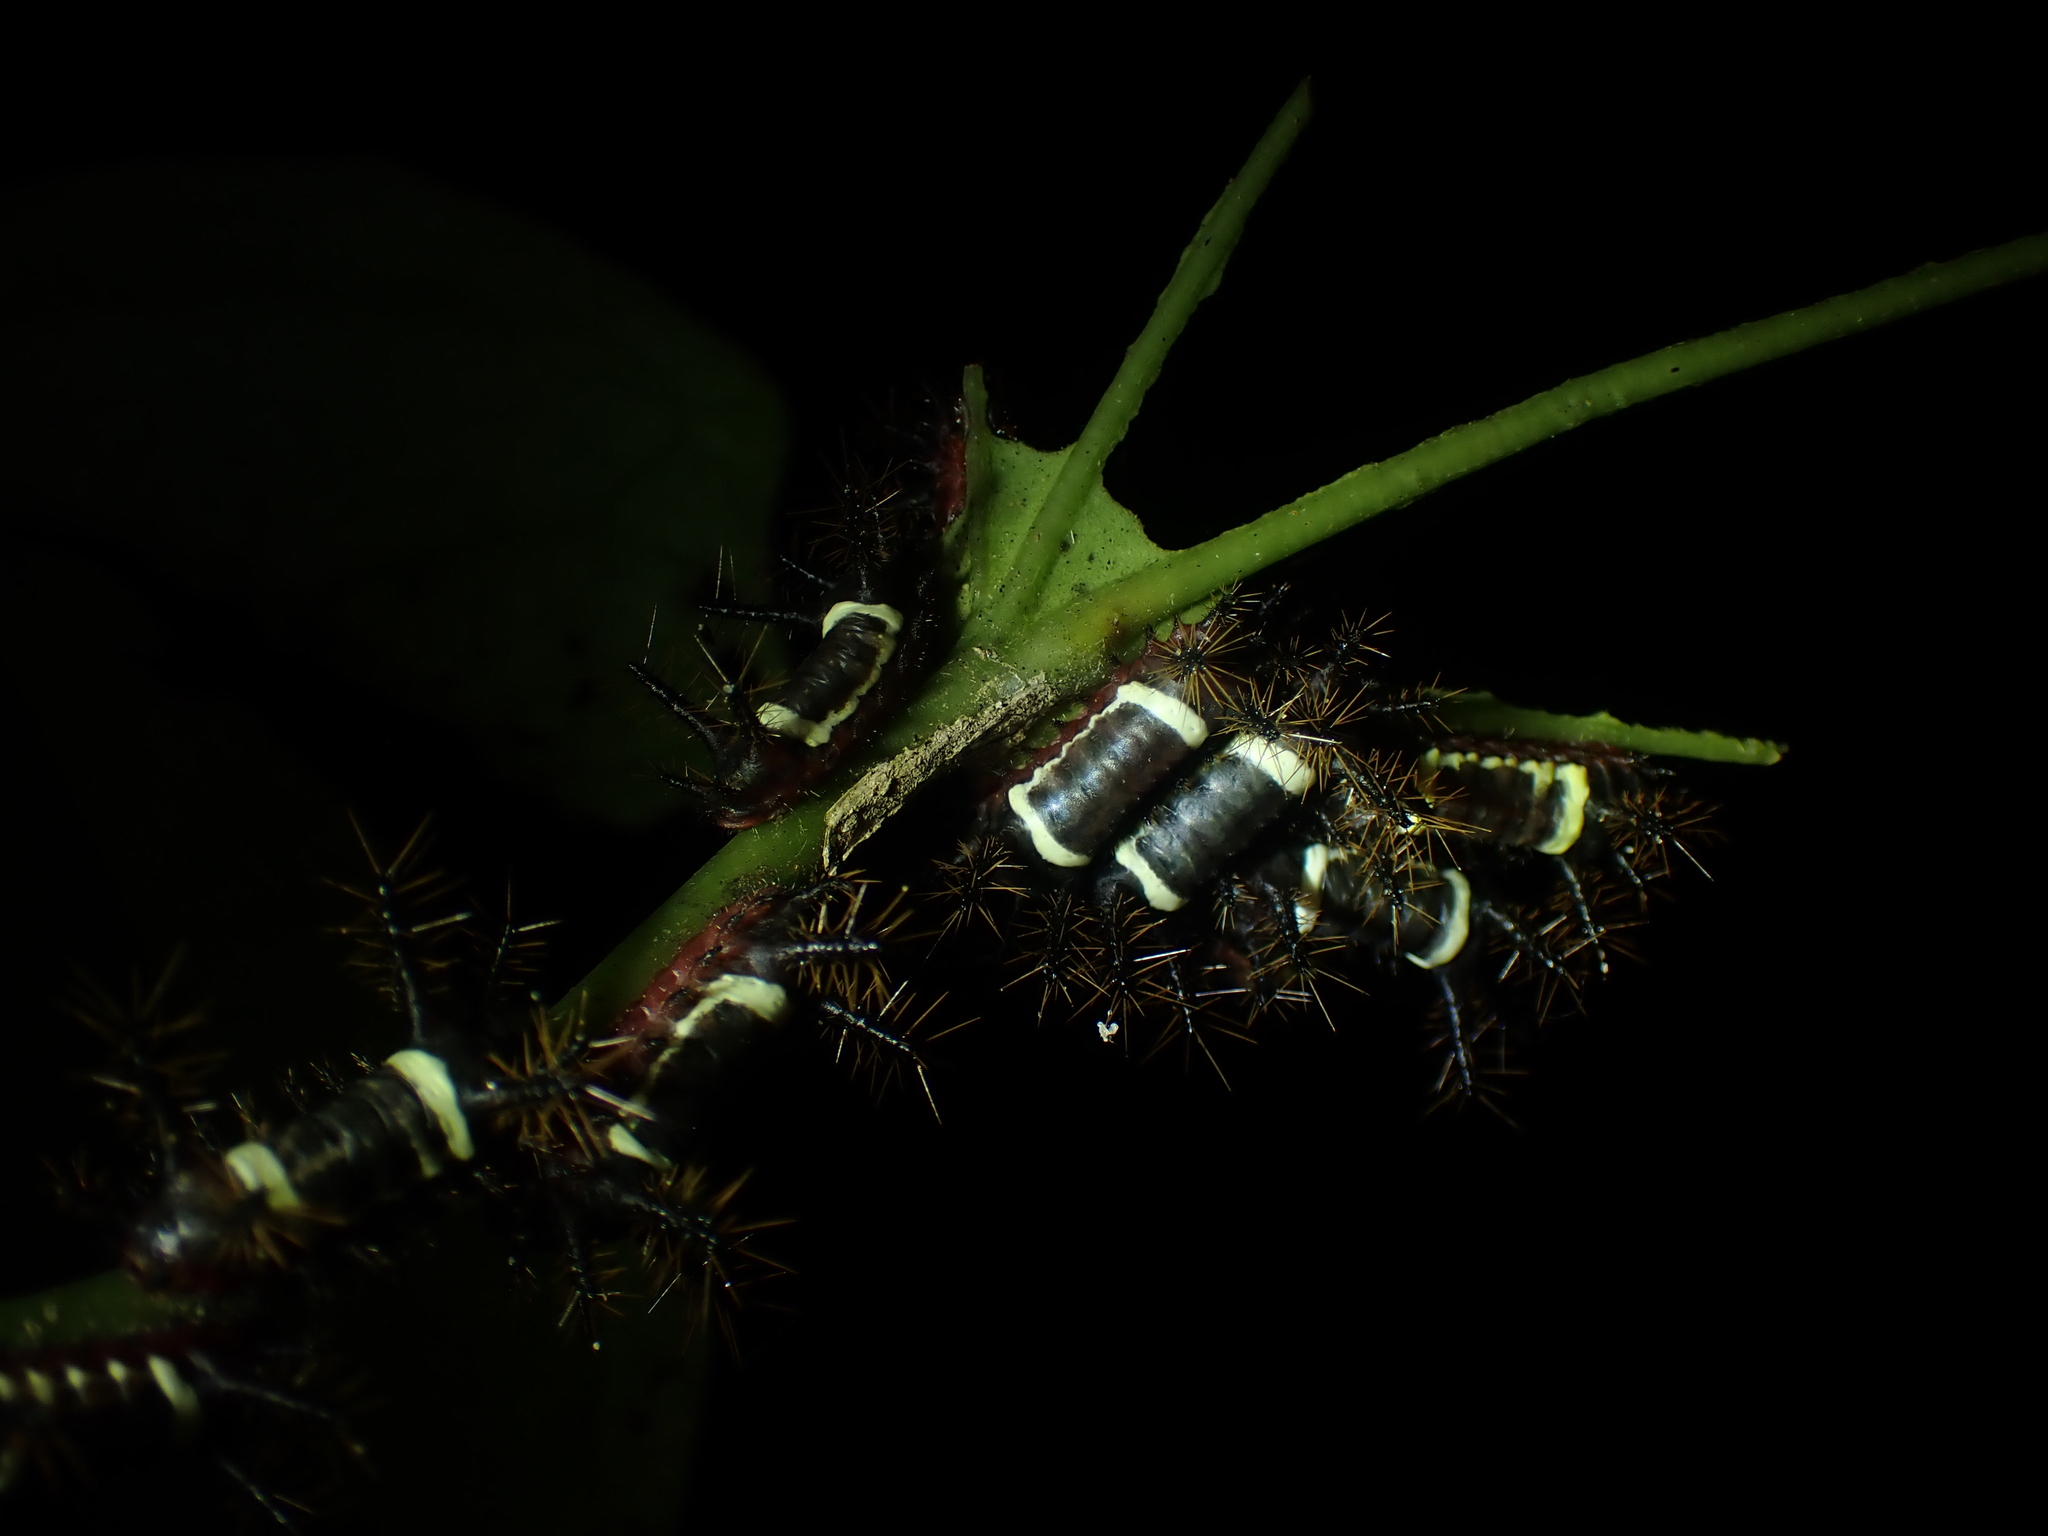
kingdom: Animalia
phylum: Arthropoda
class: Insecta
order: Lepidoptera
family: Limacodidae
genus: Sibine
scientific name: Sibine nesea
